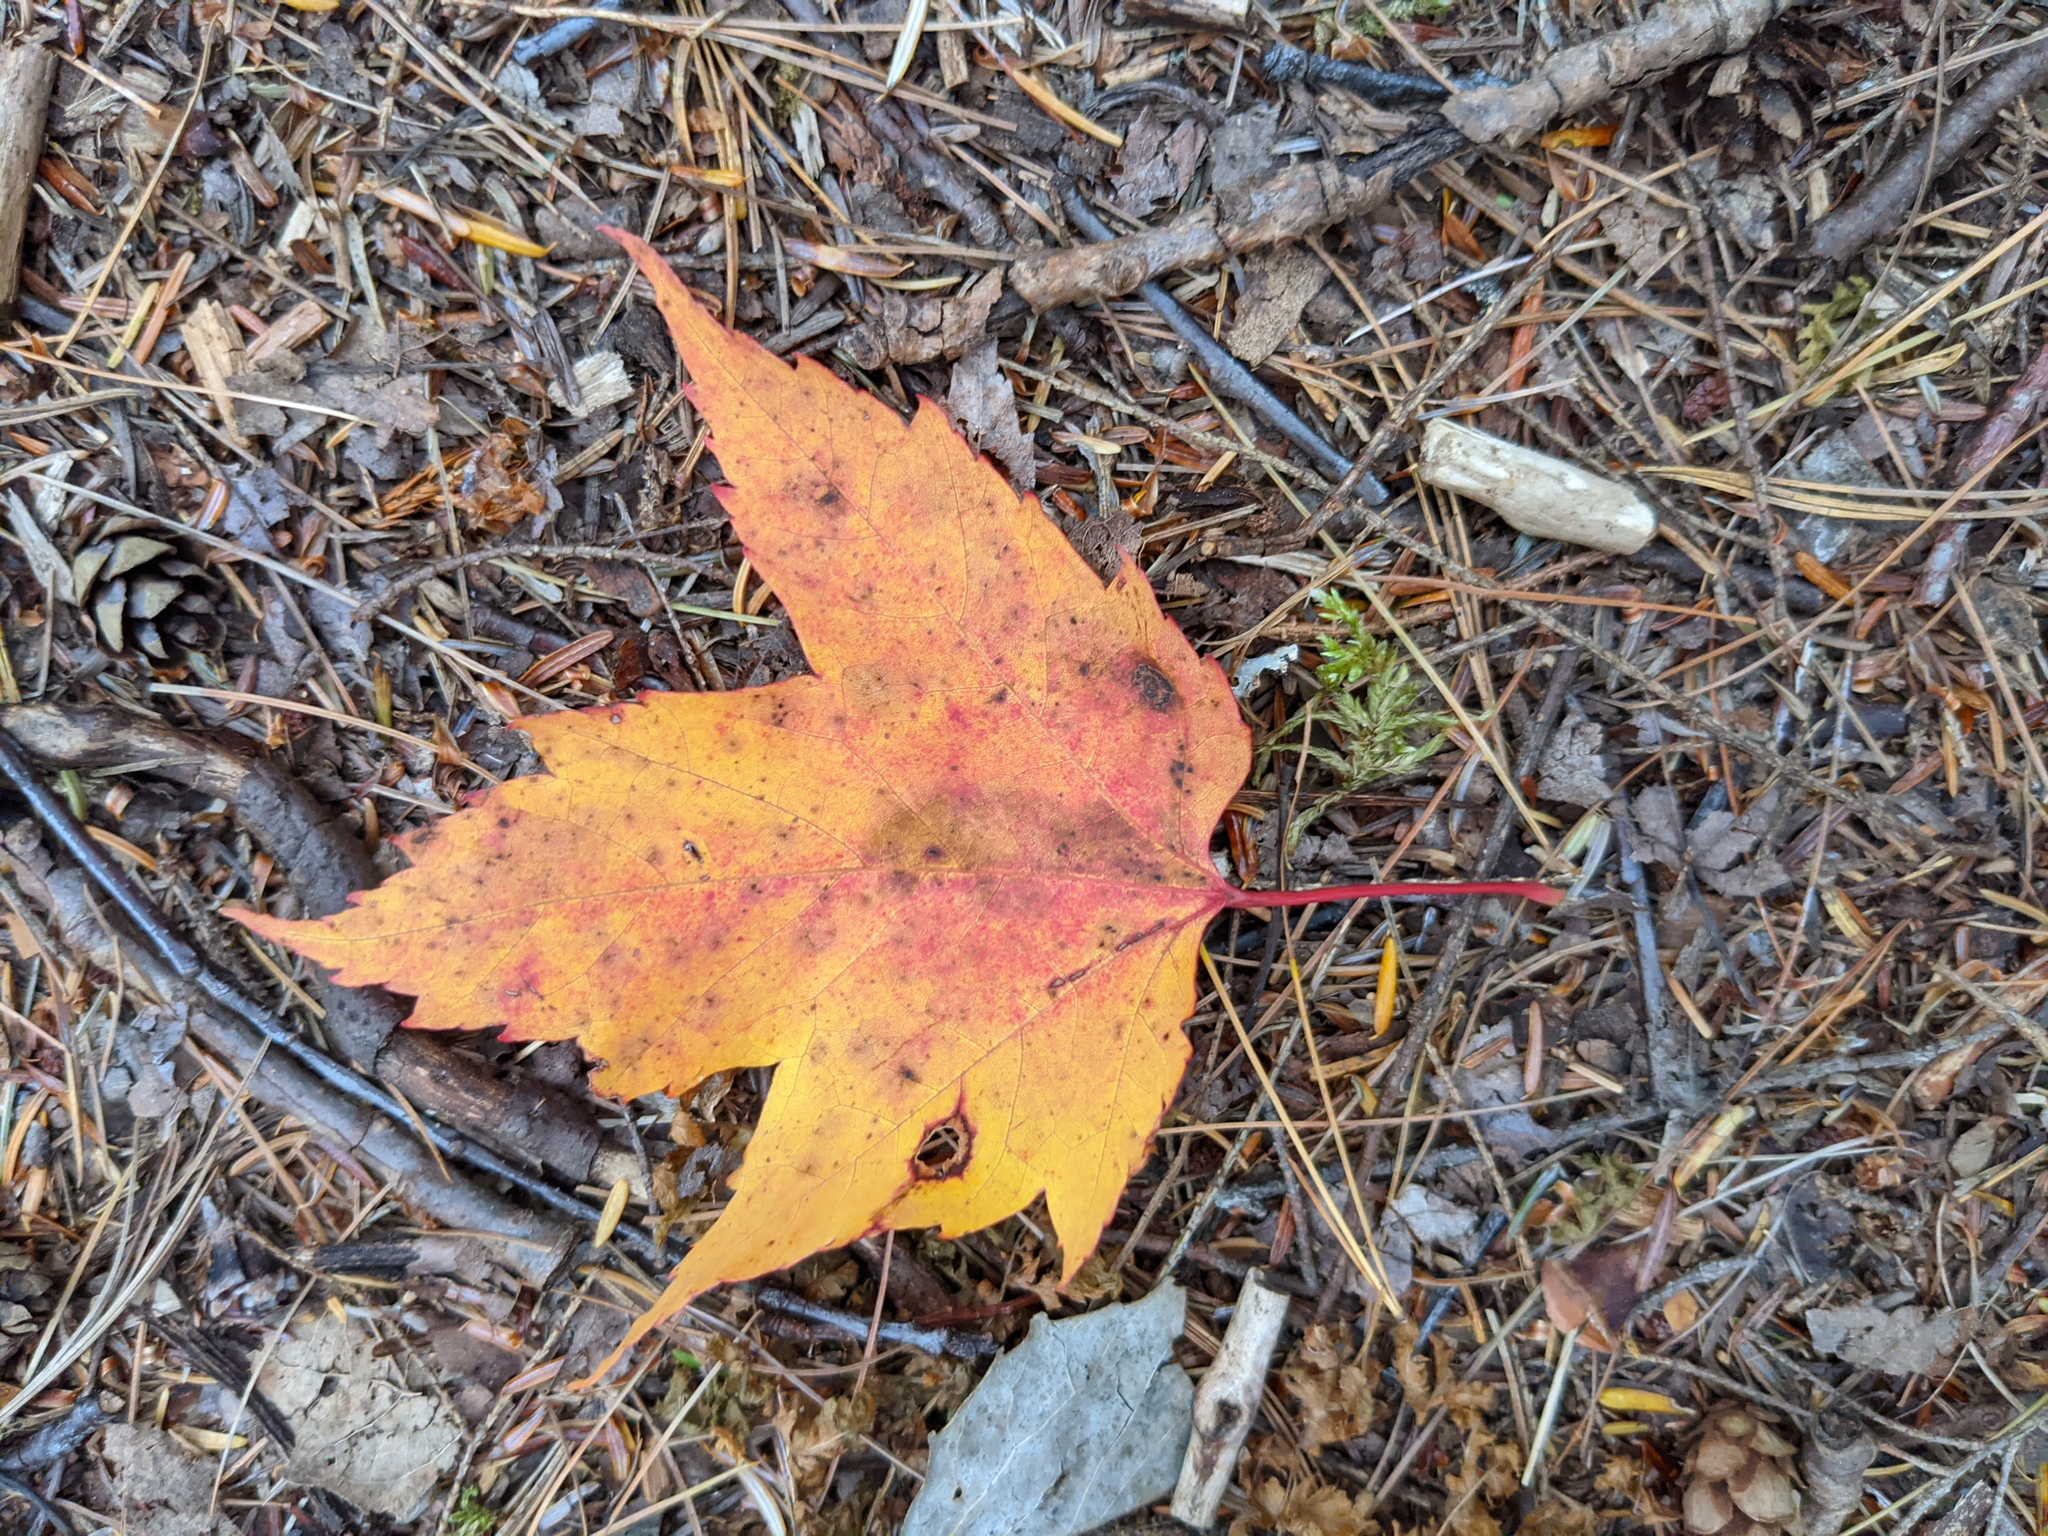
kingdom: Plantae
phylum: Tracheophyta
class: Magnoliopsida
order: Sapindales
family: Sapindaceae
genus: Acer
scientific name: Acer rubrum
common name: Red maple
